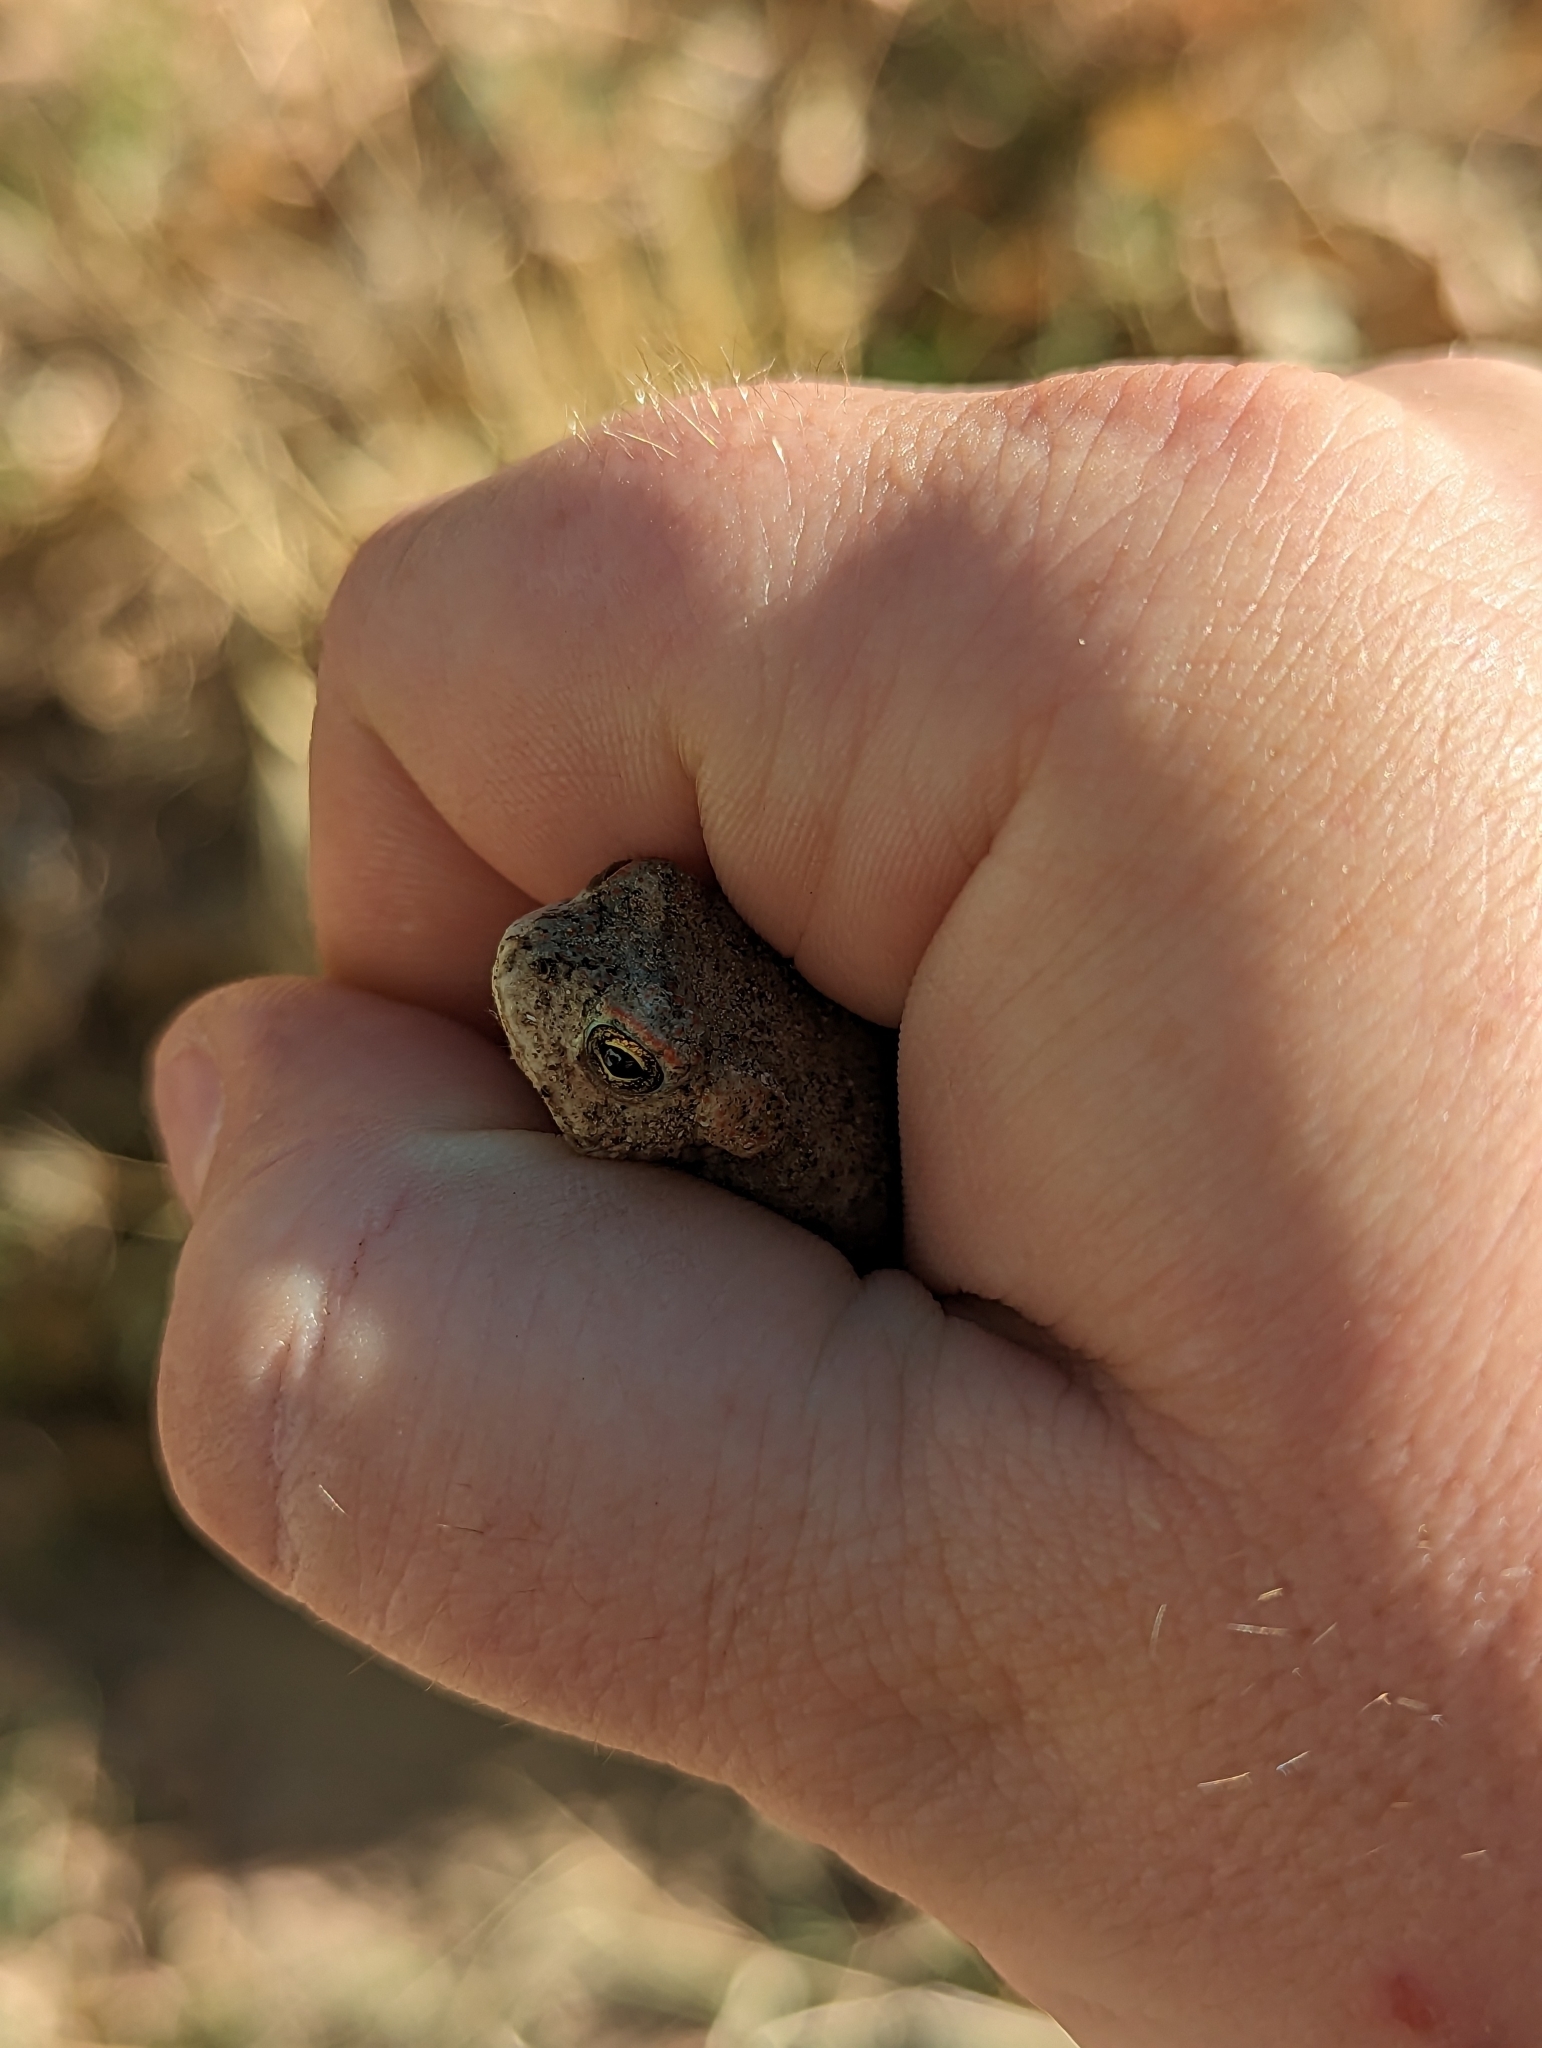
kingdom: Animalia
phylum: Chordata
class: Amphibia
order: Anura
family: Bufonidae
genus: Anaxyrus
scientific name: Anaxyrus microscaphus
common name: Arizona toad
